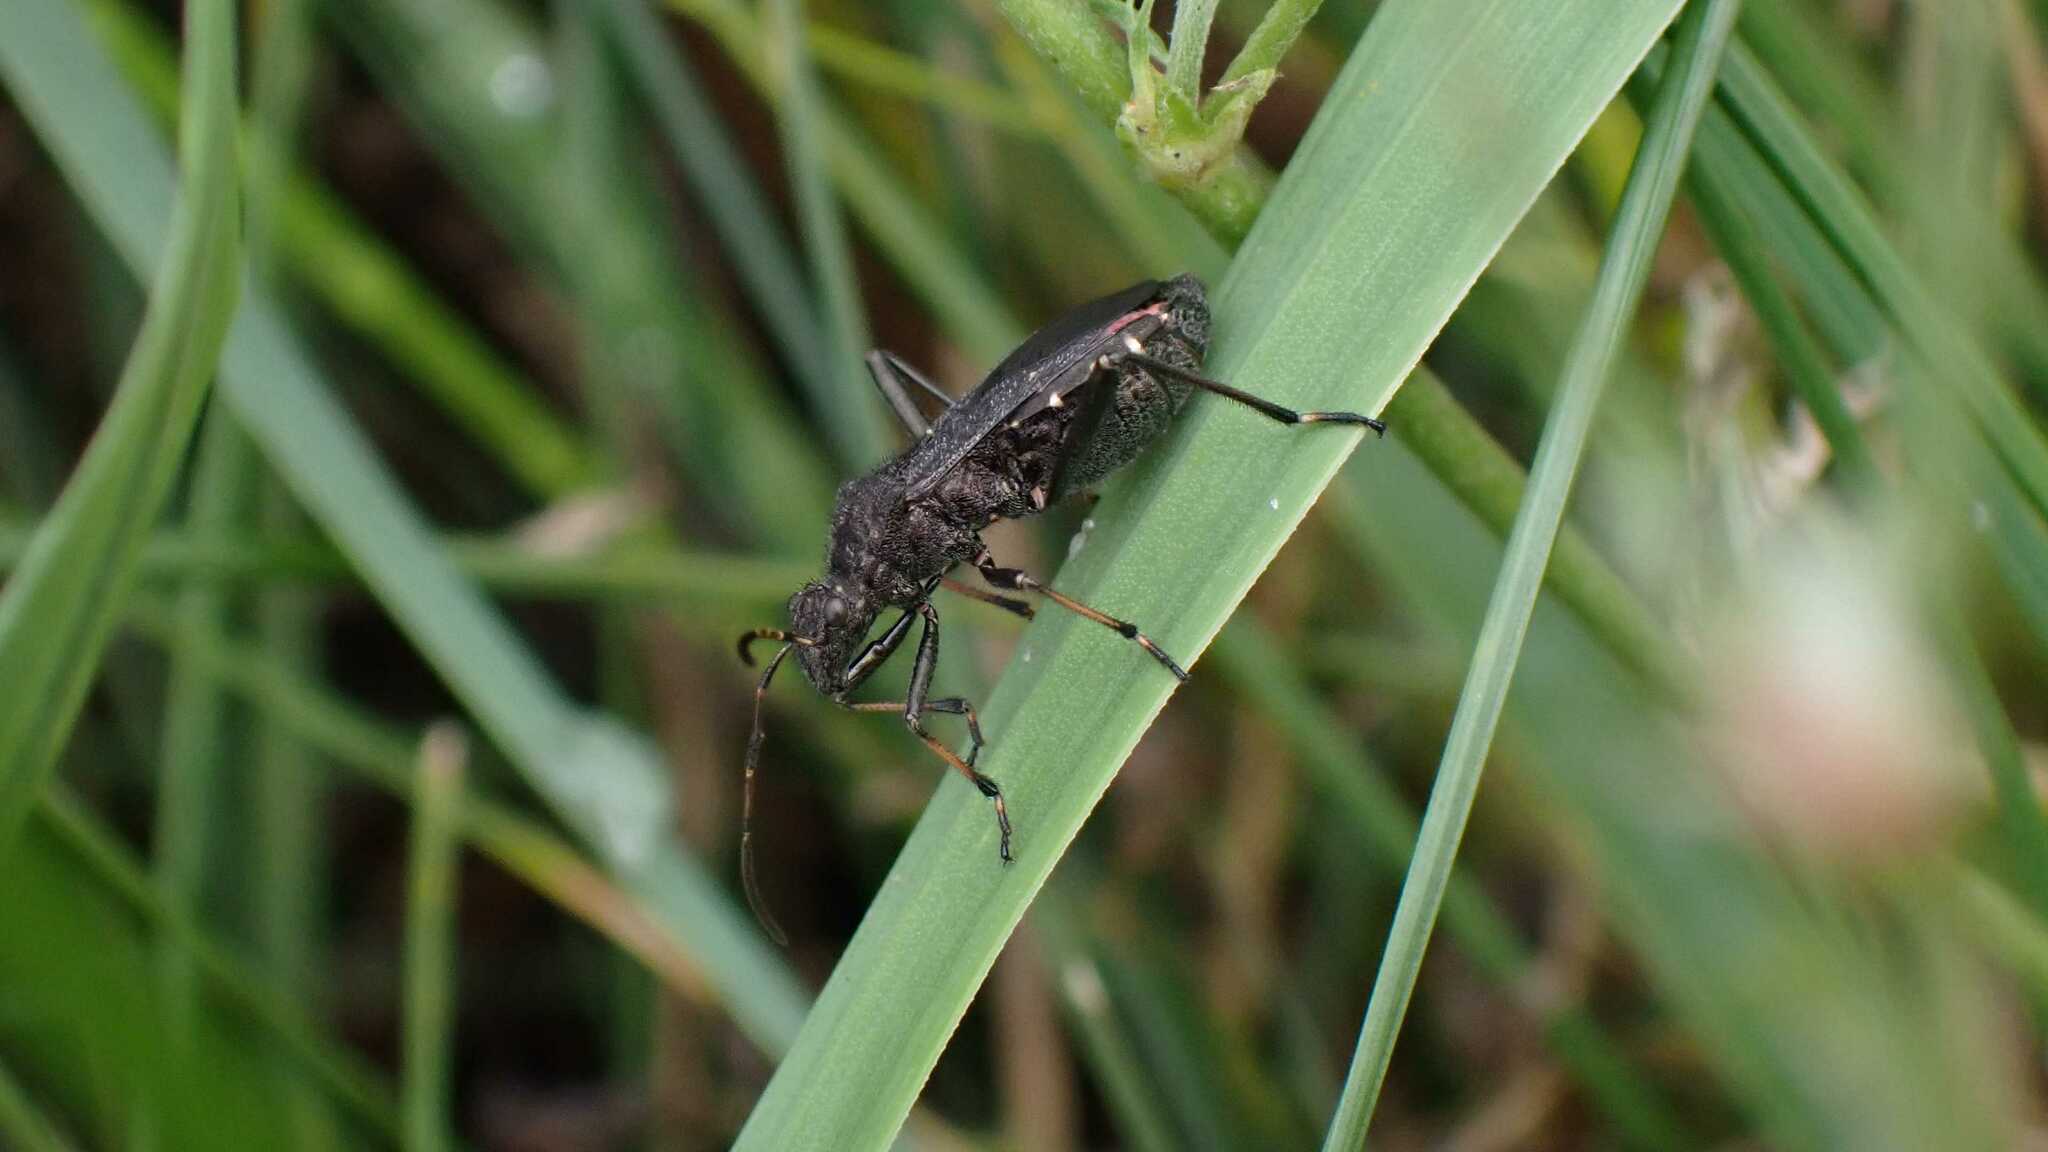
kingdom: Animalia
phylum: Arthropoda
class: Insecta
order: Hemiptera
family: Alydidae
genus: Alydus
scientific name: Alydus calcaratus
